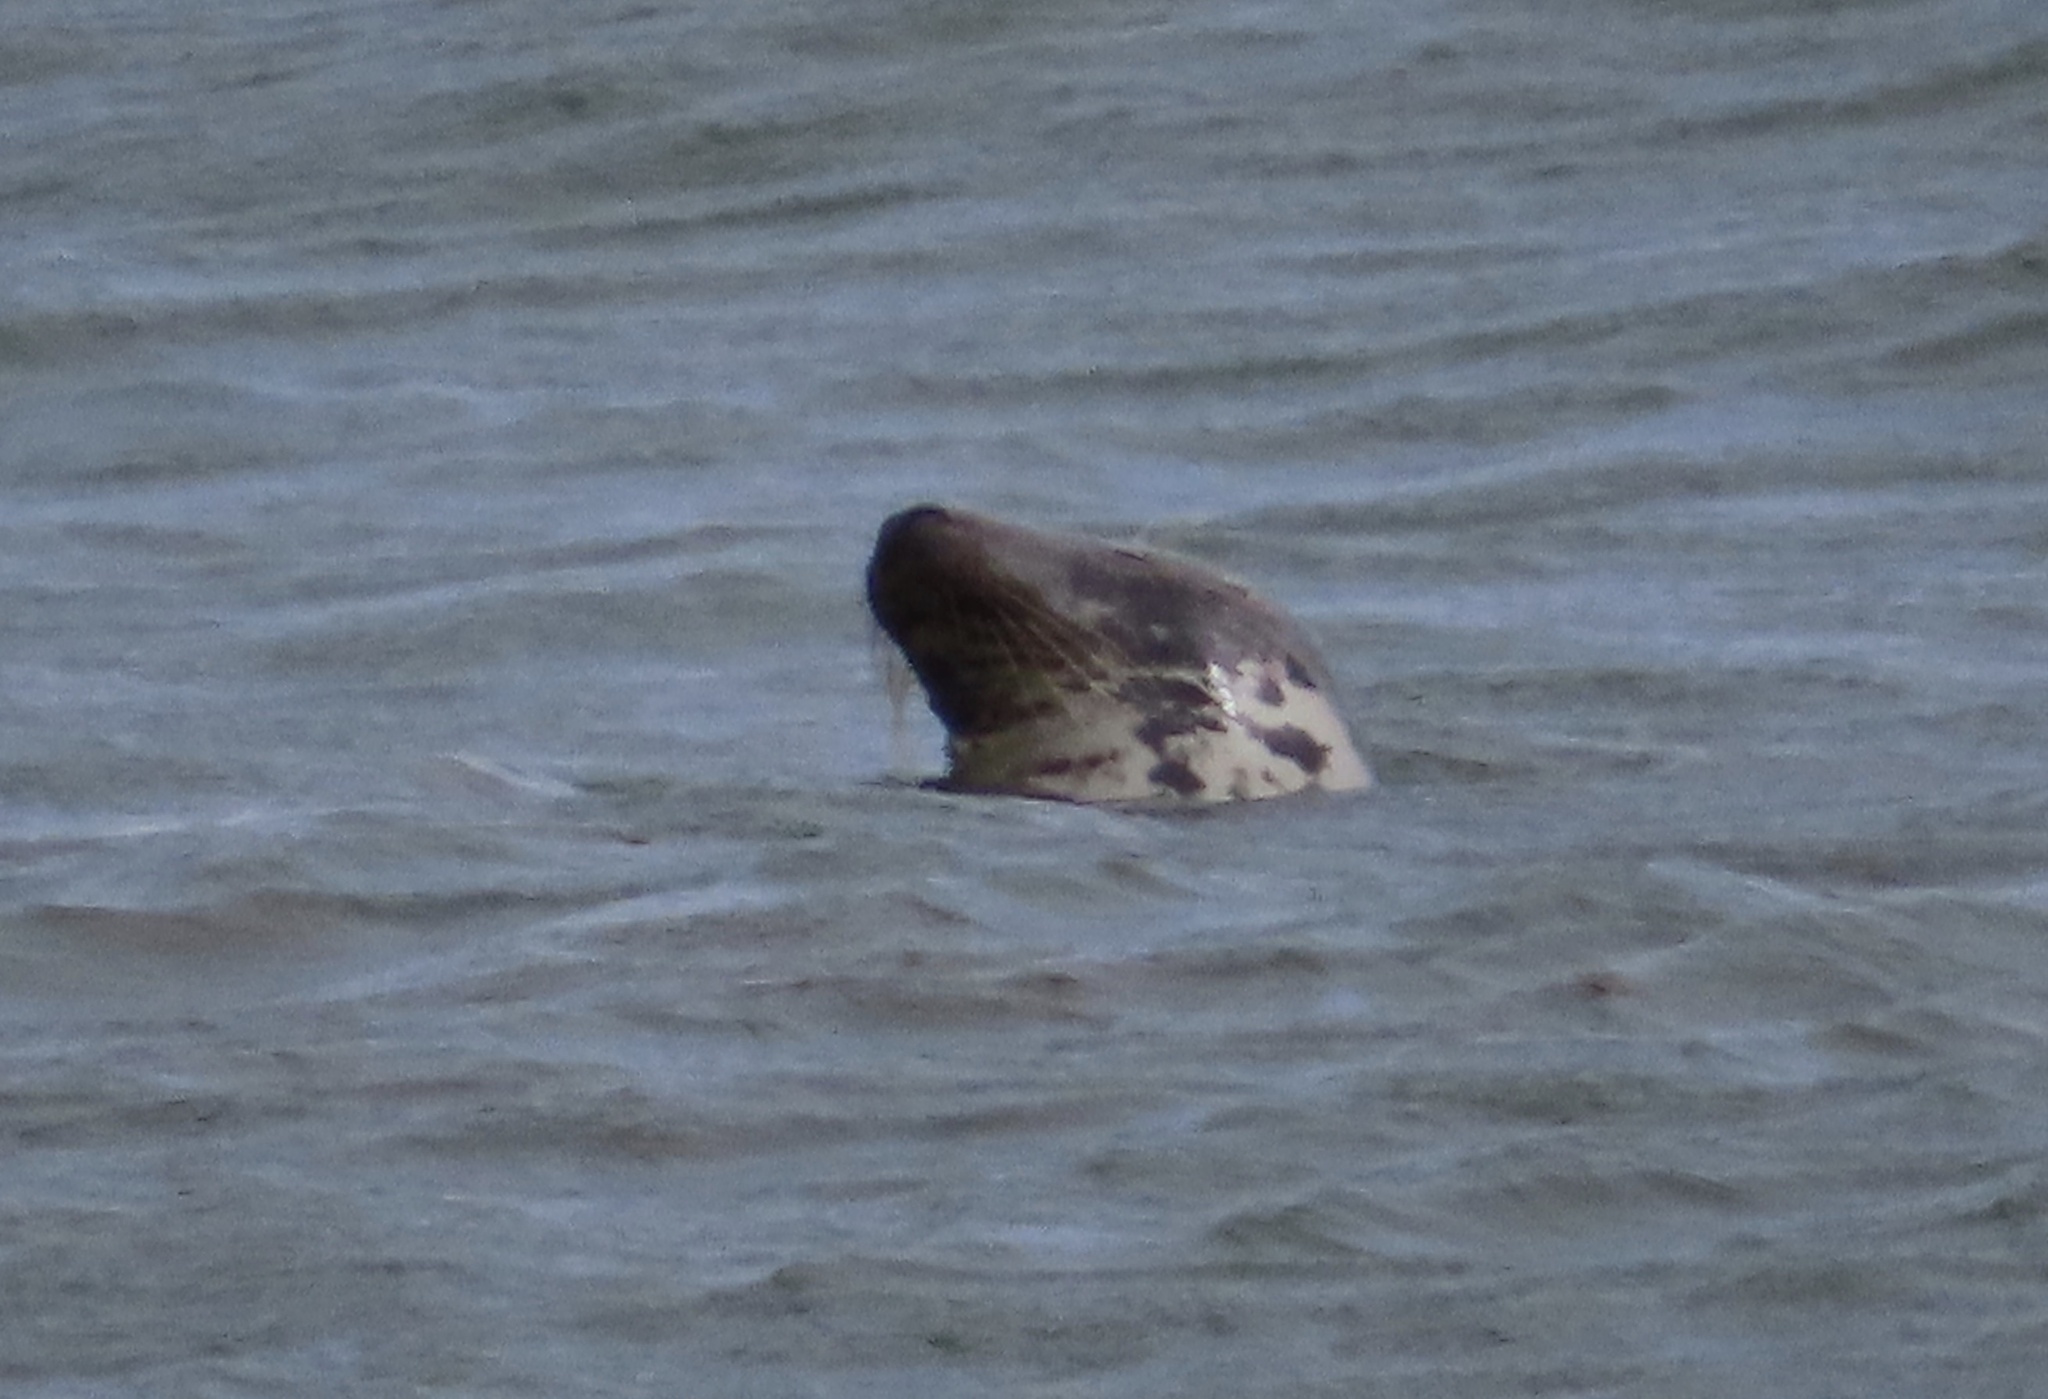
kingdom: Animalia
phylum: Chordata
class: Mammalia
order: Carnivora
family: Phocidae
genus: Halichoerus
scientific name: Halichoerus grypus
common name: Grey seal
